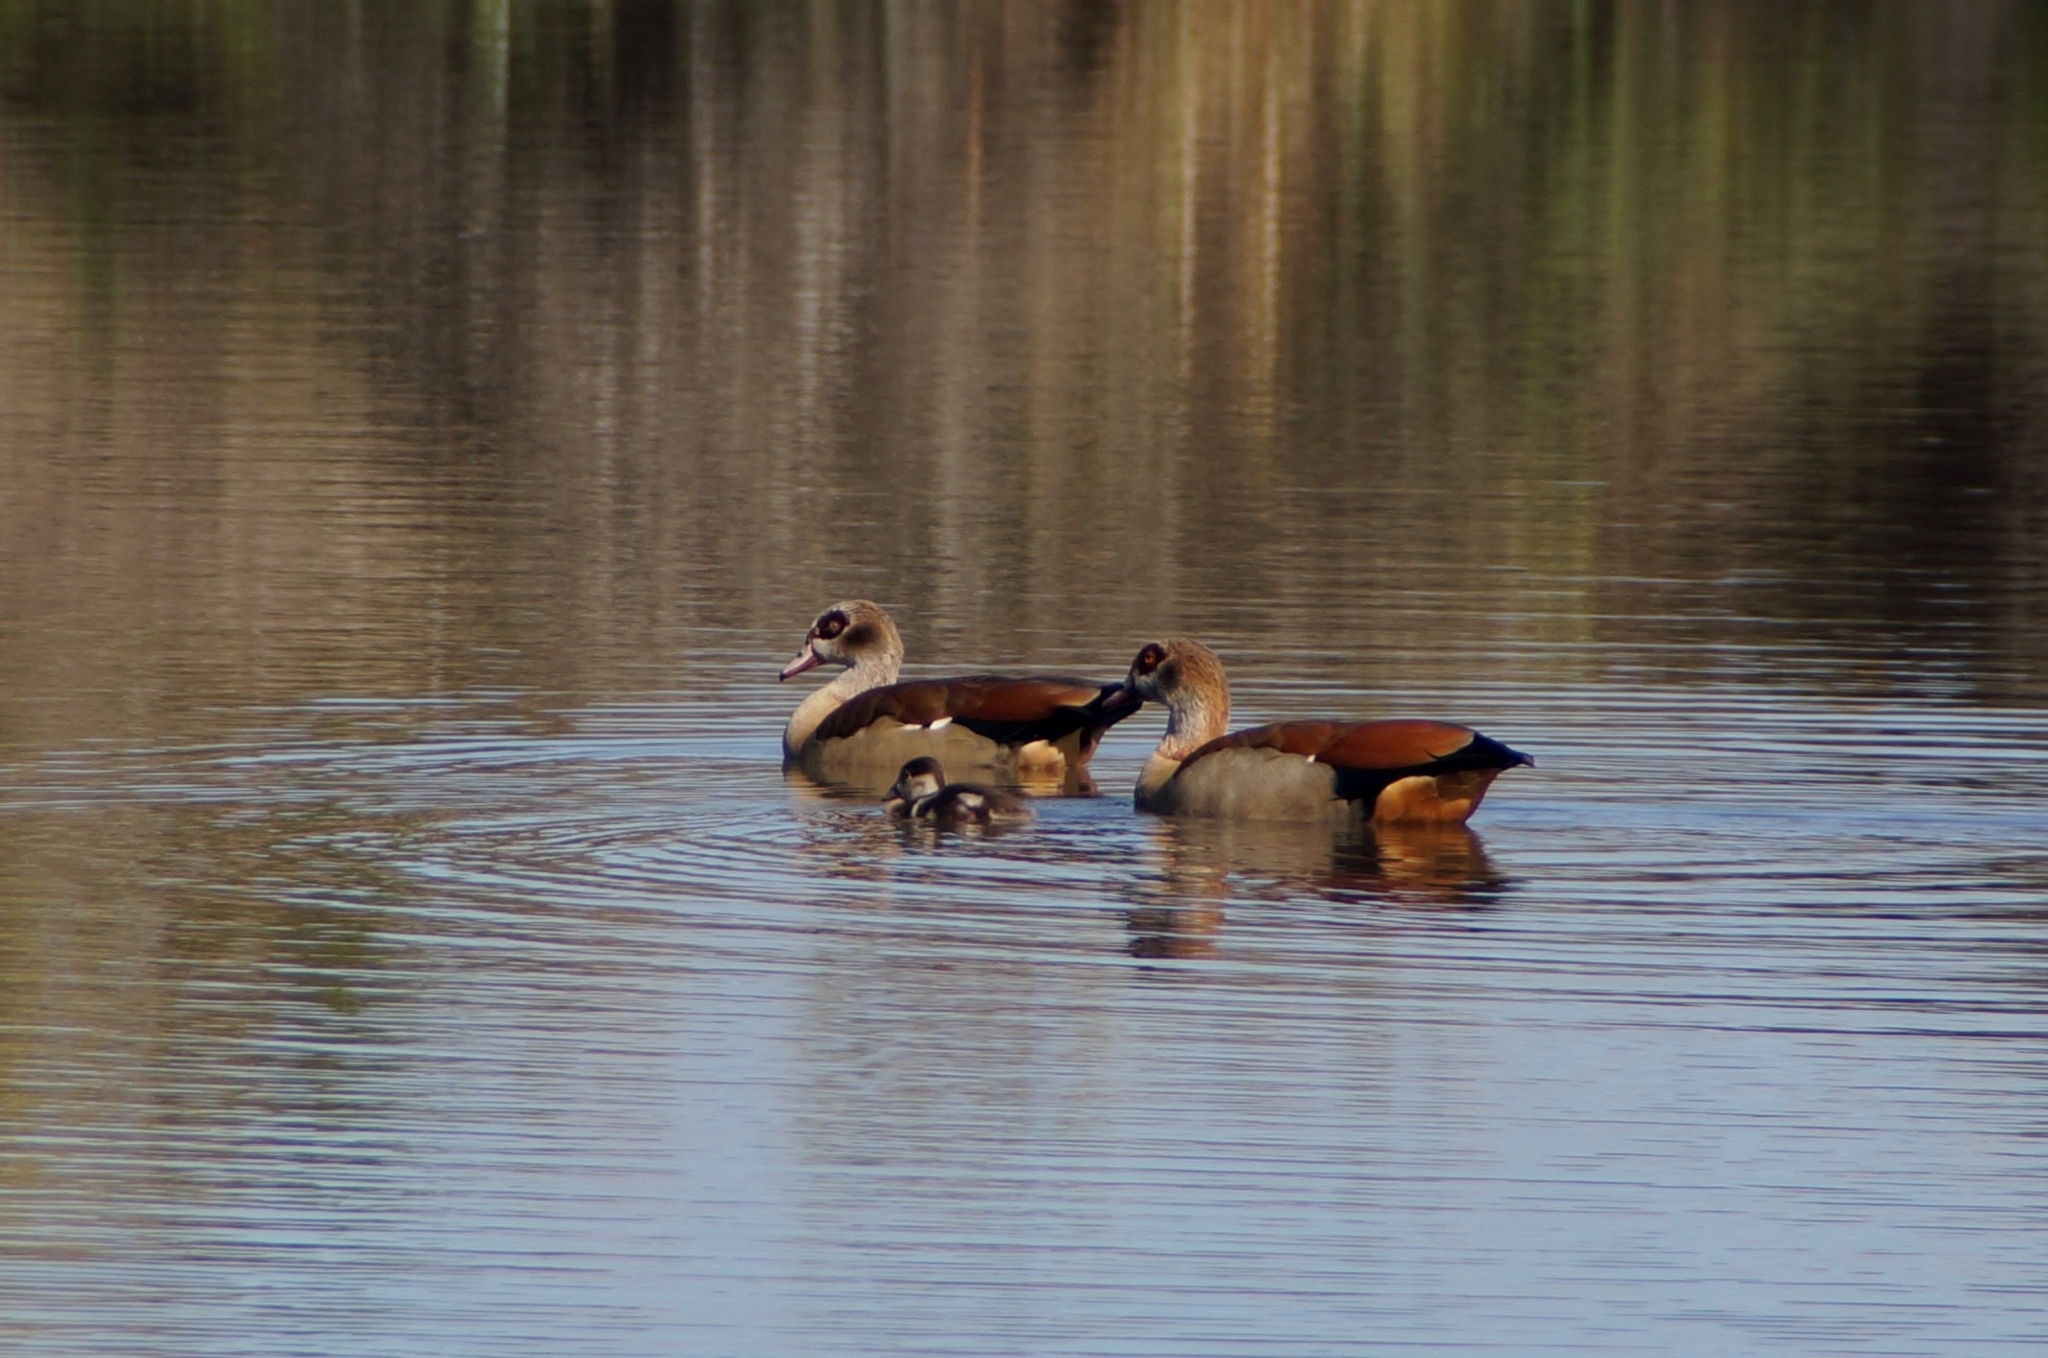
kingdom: Animalia
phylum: Chordata
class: Aves
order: Anseriformes
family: Anatidae
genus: Alopochen
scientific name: Alopochen aegyptiaca
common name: Egyptian goose
